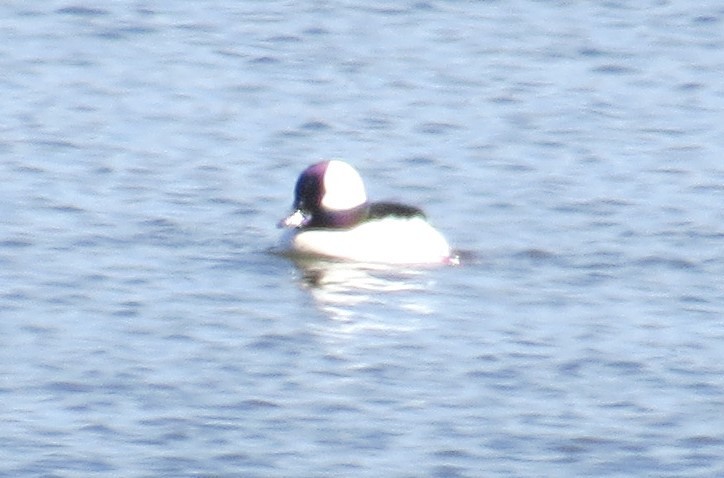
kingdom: Animalia
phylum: Chordata
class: Aves
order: Anseriformes
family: Anatidae
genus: Bucephala
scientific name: Bucephala albeola
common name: Bufflehead
